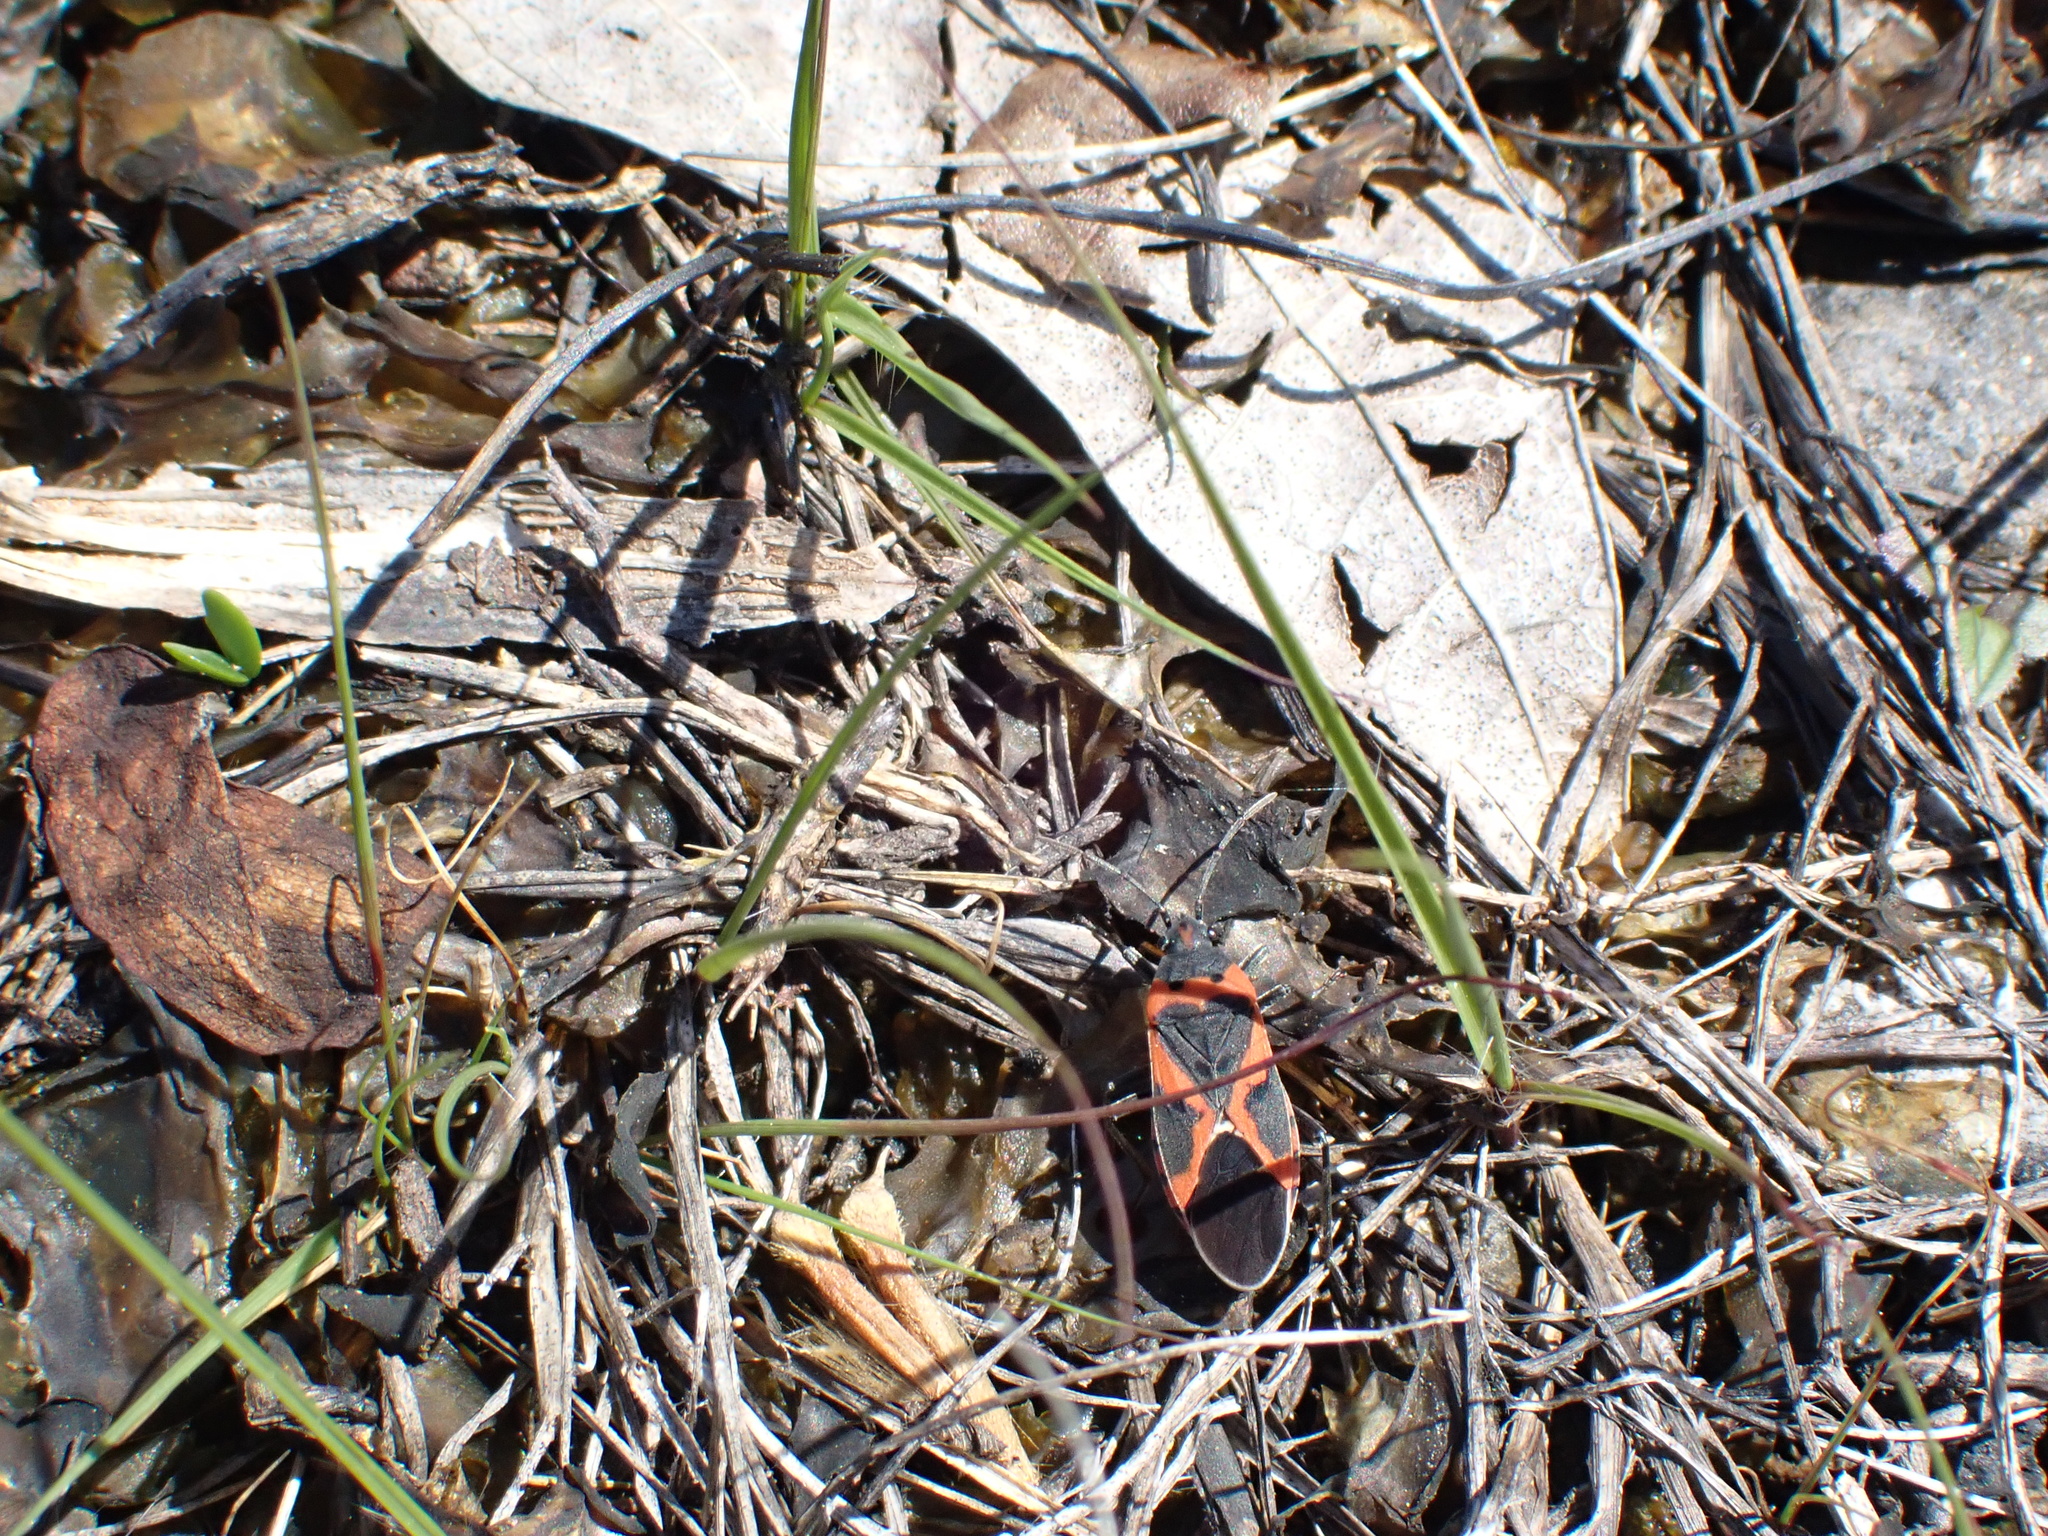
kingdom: Animalia
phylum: Arthropoda
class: Insecta
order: Hemiptera
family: Lygaeidae
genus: Lygaeus
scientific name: Lygaeus kalmii
